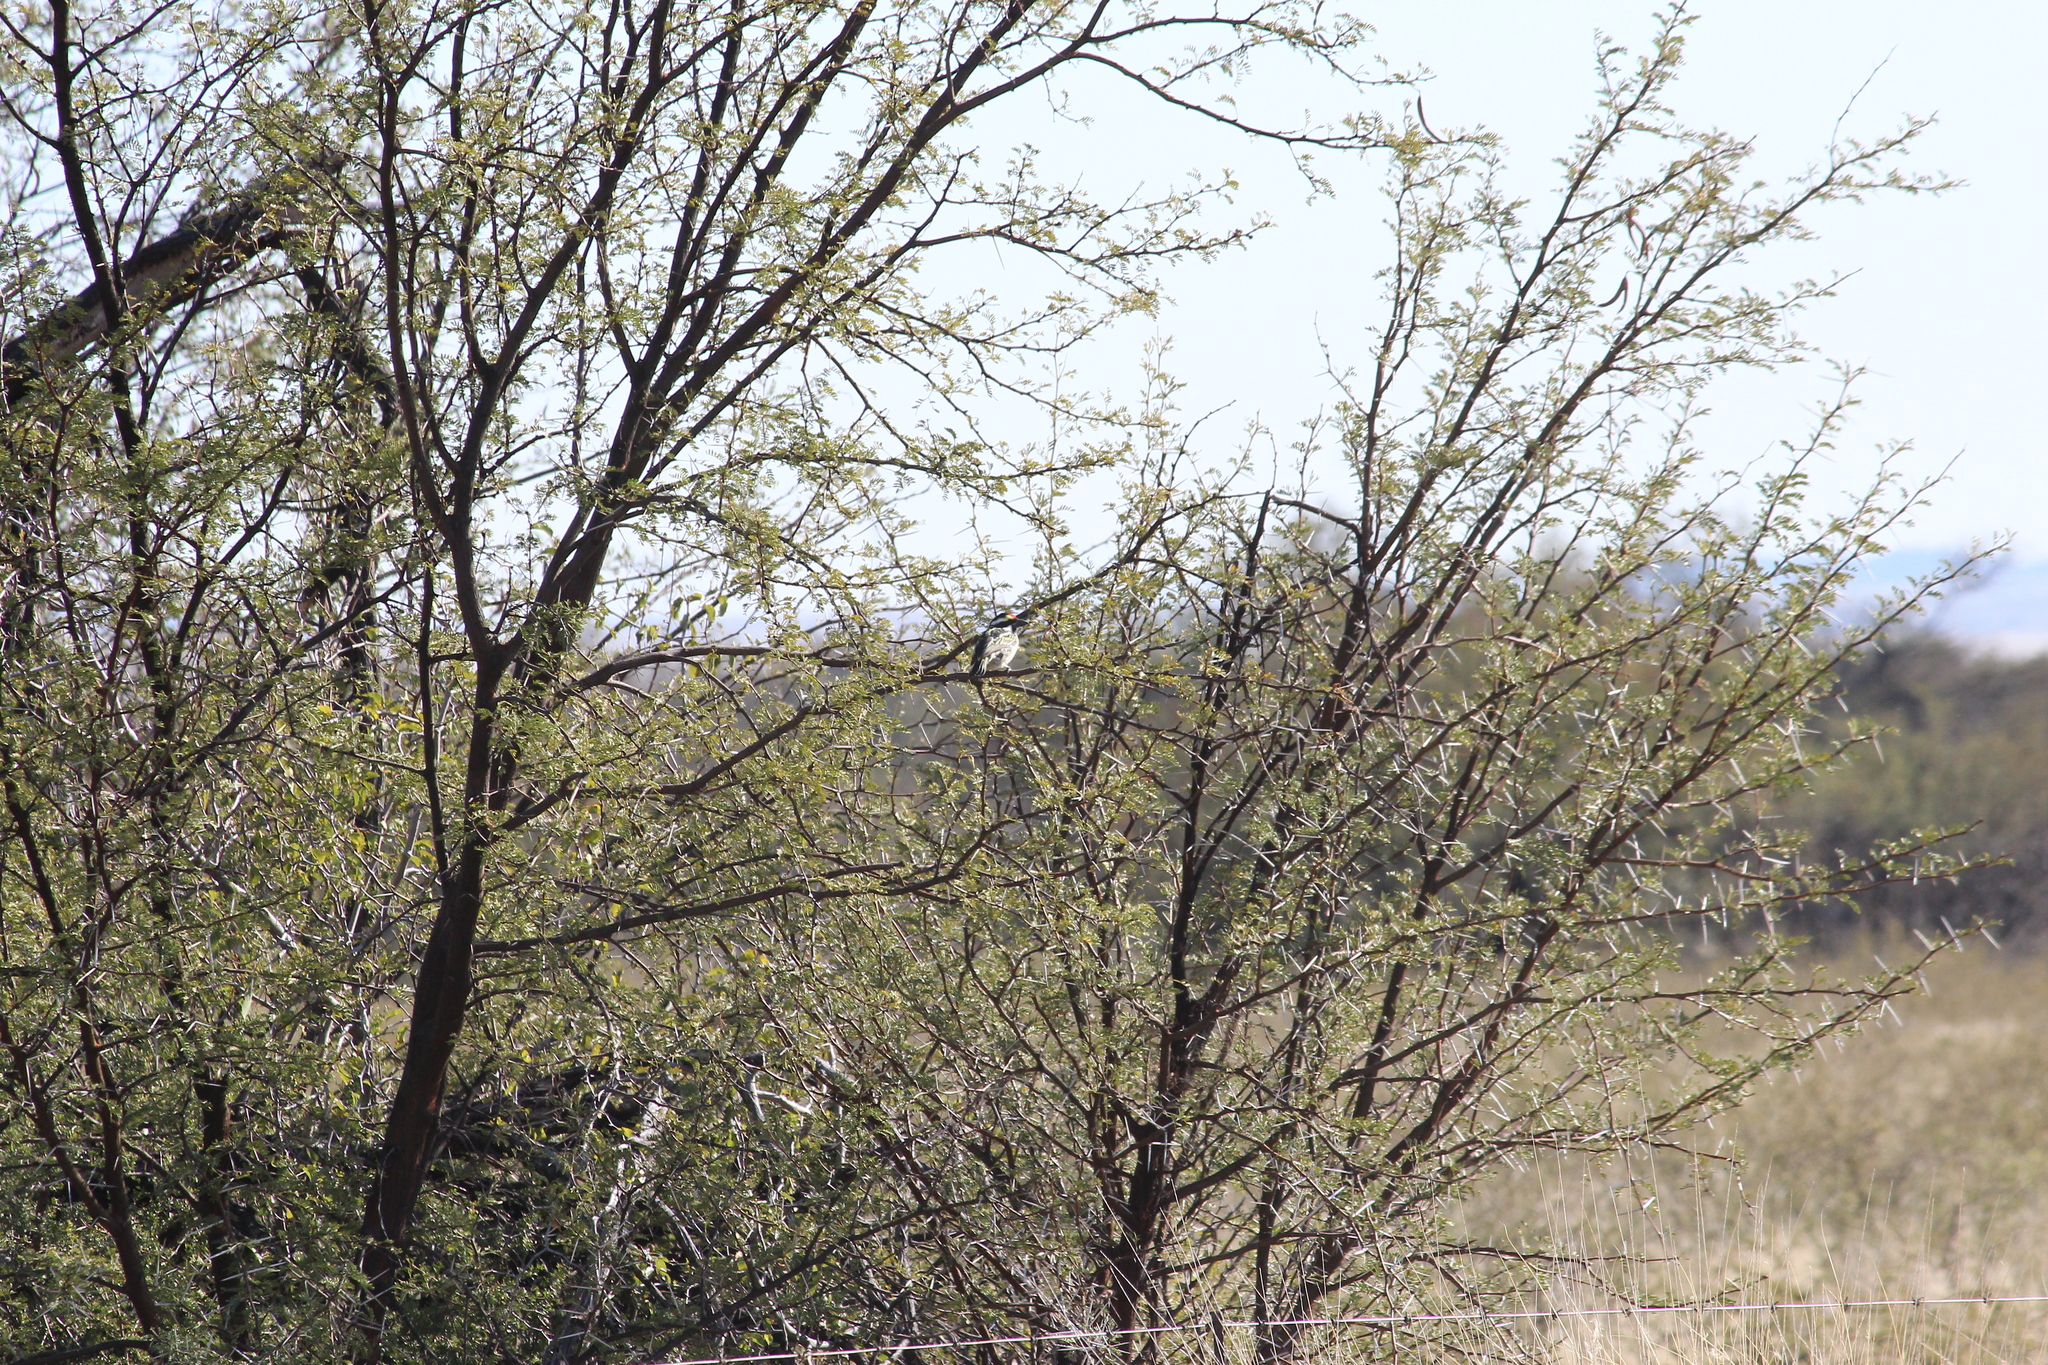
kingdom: Animalia
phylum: Chordata
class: Aves
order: Piciformes
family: Lybiidae
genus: Tricholaema
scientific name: Tricholaema leucomelas
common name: Acacia pied barbet
